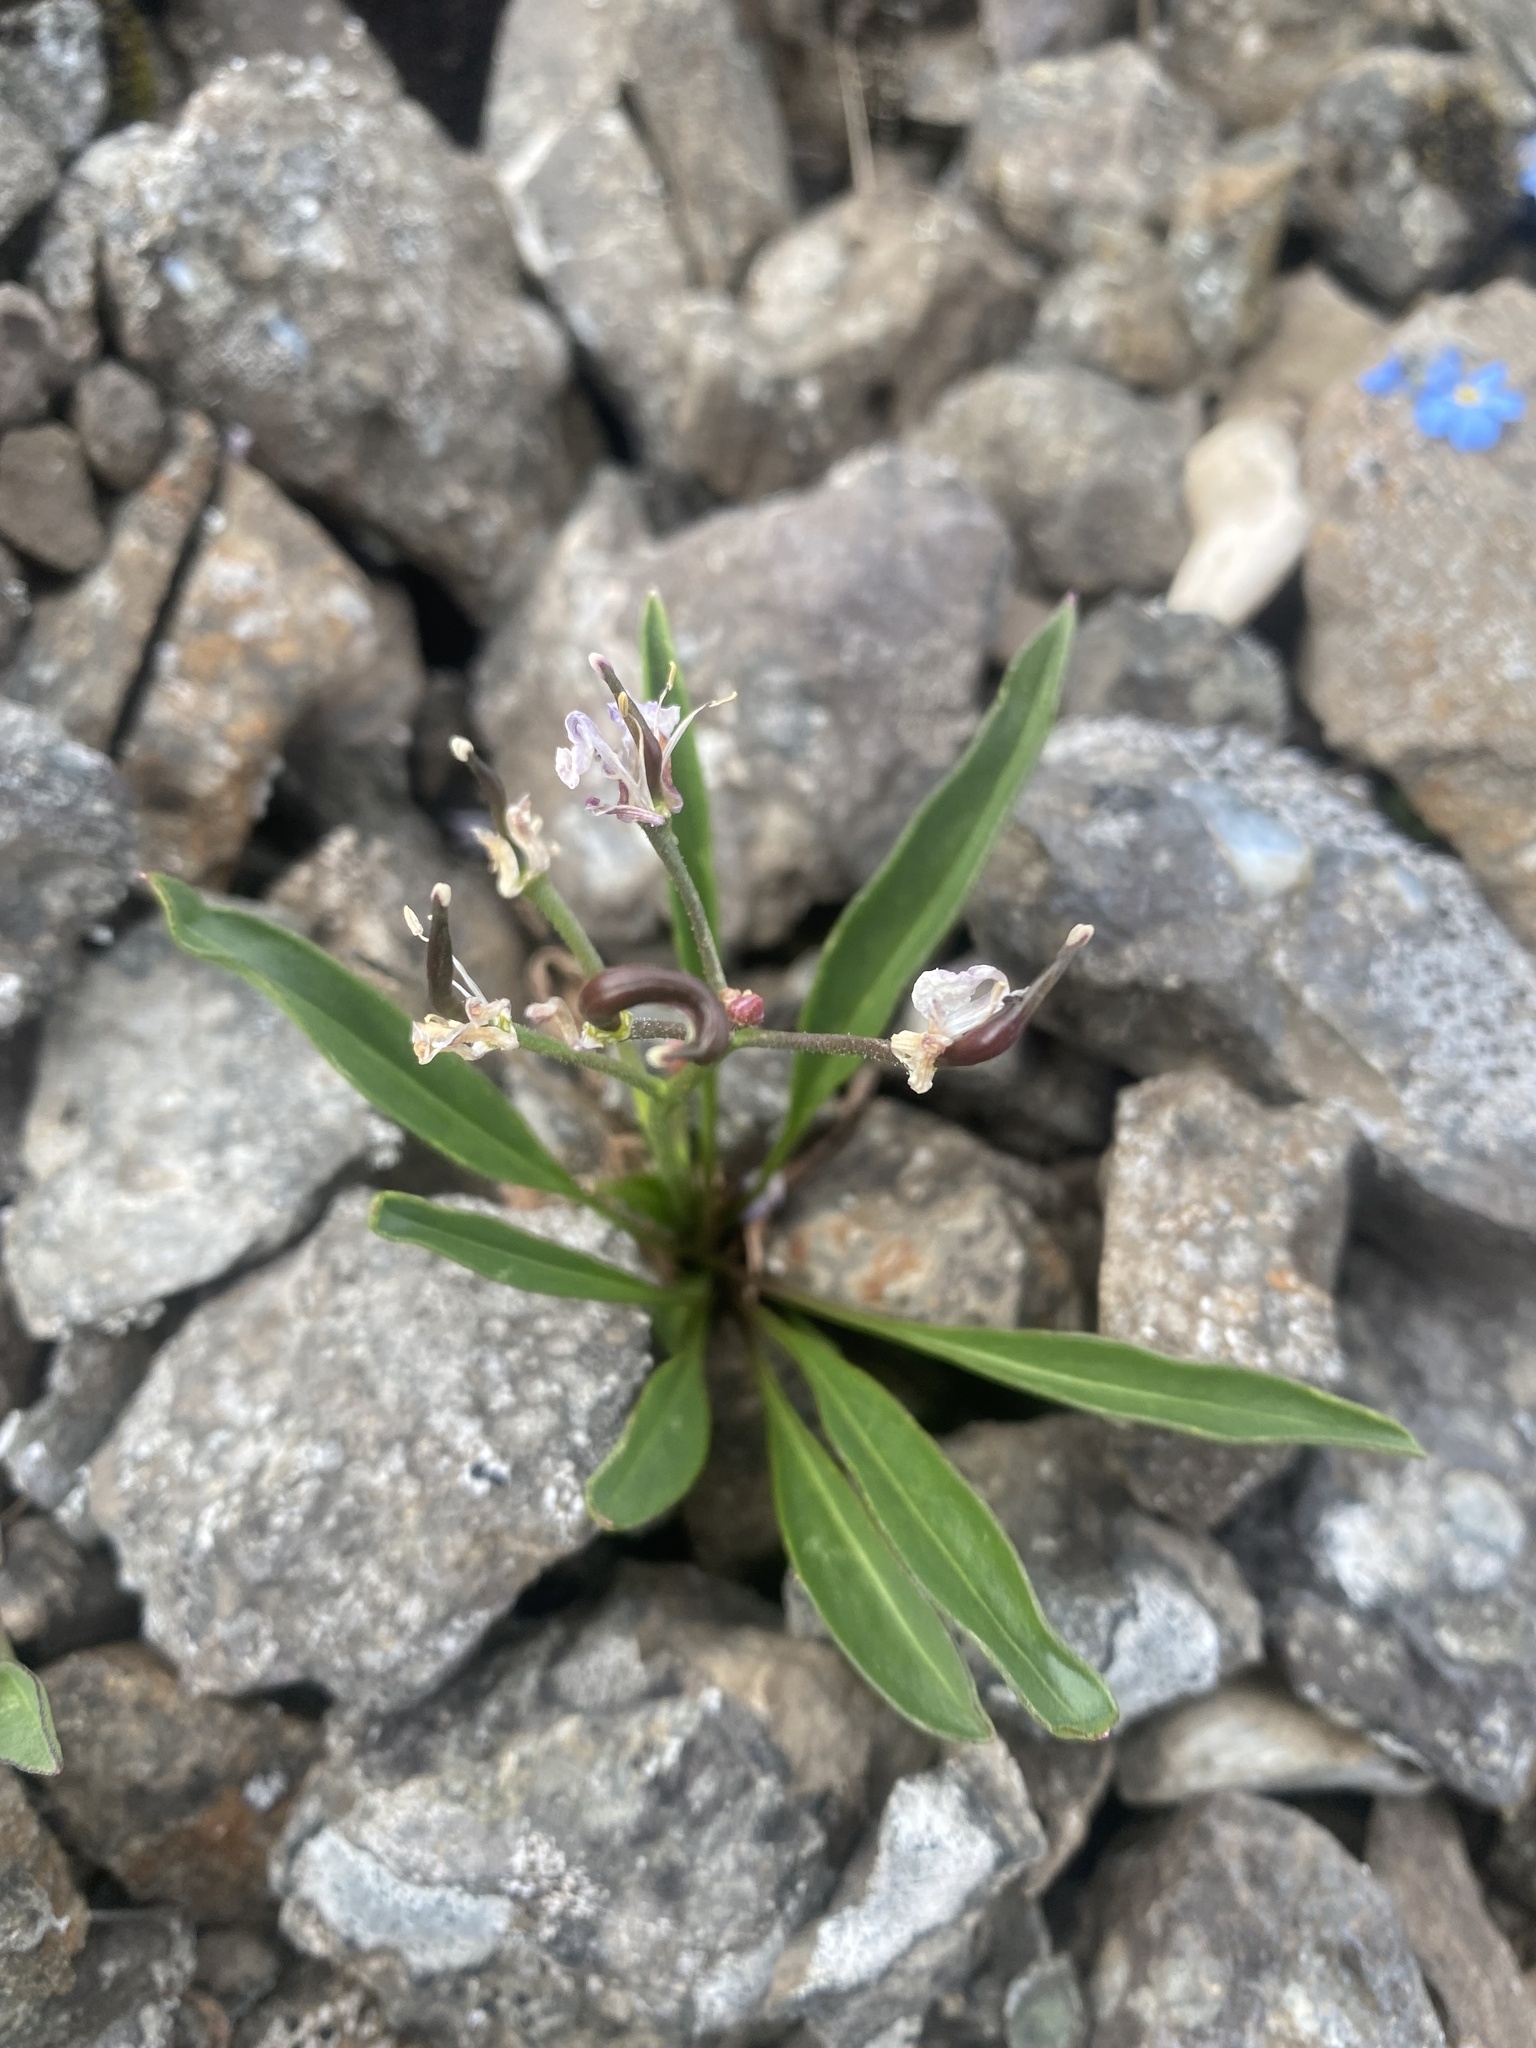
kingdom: Plantae
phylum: Tracheophyta
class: Magnoliopsida
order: Brassicales
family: Brassicaceae
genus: Parrya
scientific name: Parrya nudicaulis
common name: Naked-stemmed false wallflower
